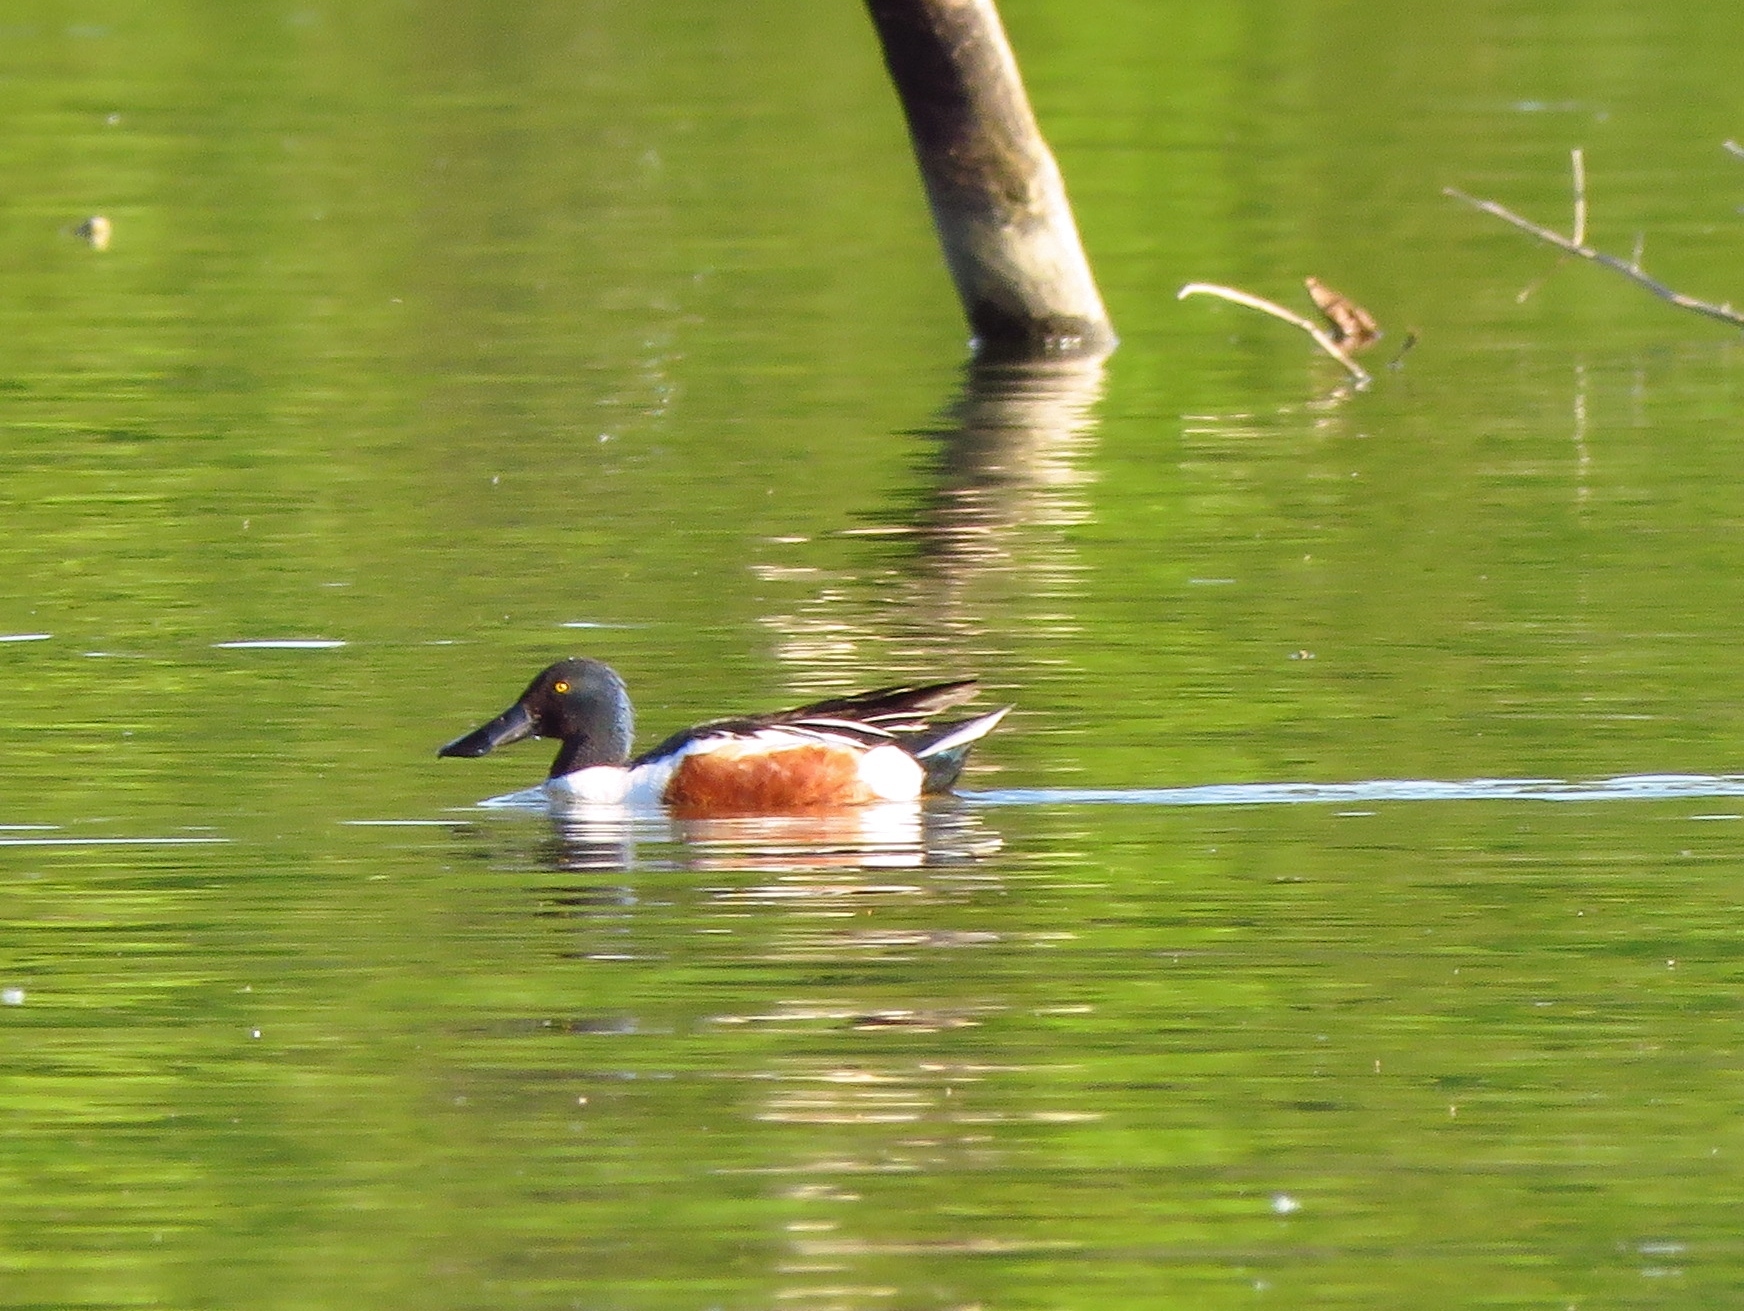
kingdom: Animalia
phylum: Chordata
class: Aves
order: Anseriformes
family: Anatidae
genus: Spatula
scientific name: Spatula clypeata
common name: Northern shoveler
